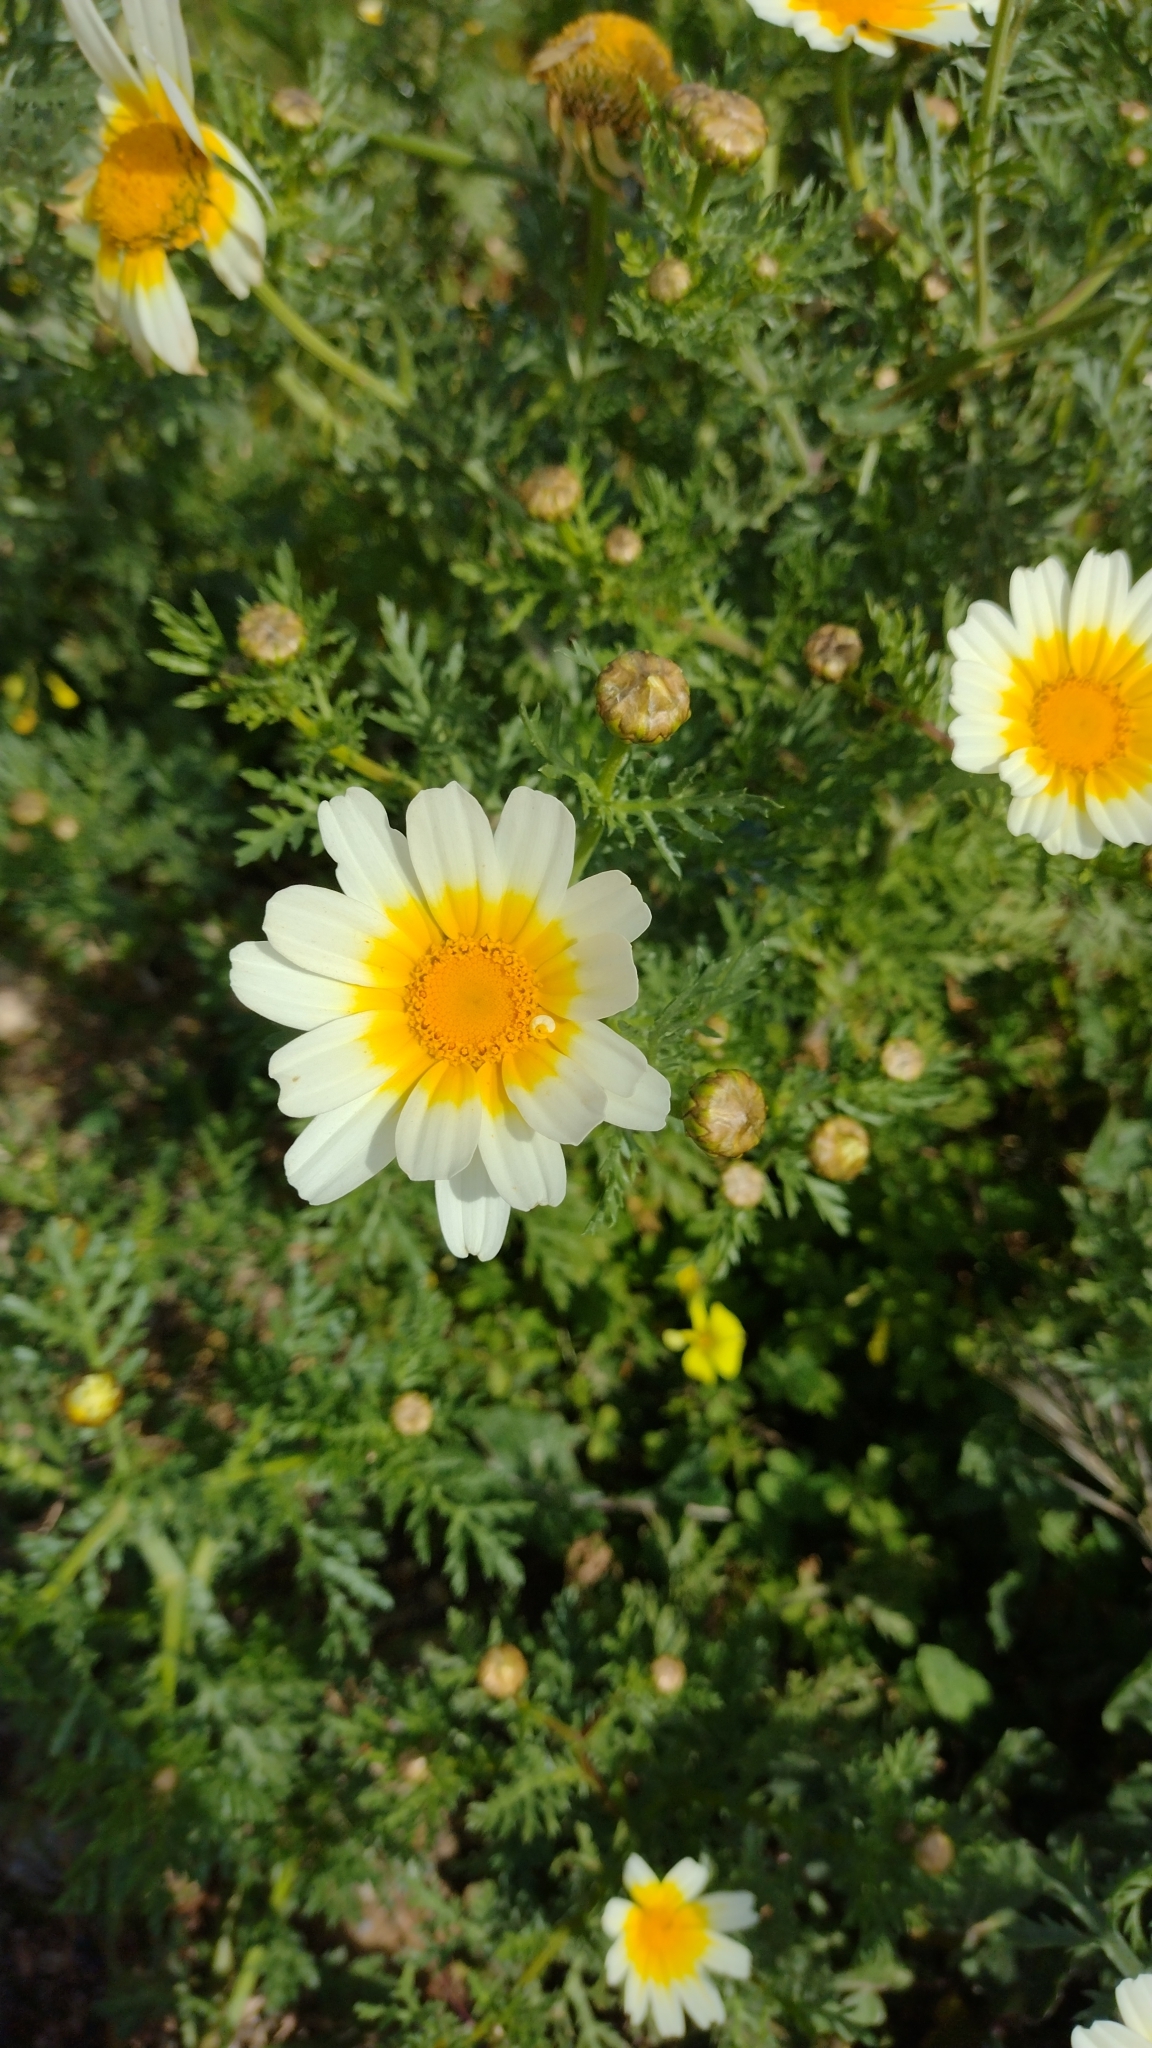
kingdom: Plantae
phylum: Tracheophyta
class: Magnoliopsida
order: Asterales
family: Asteraceae
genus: Glebionis
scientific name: Glebionis coronaria
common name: Crowndaisy
